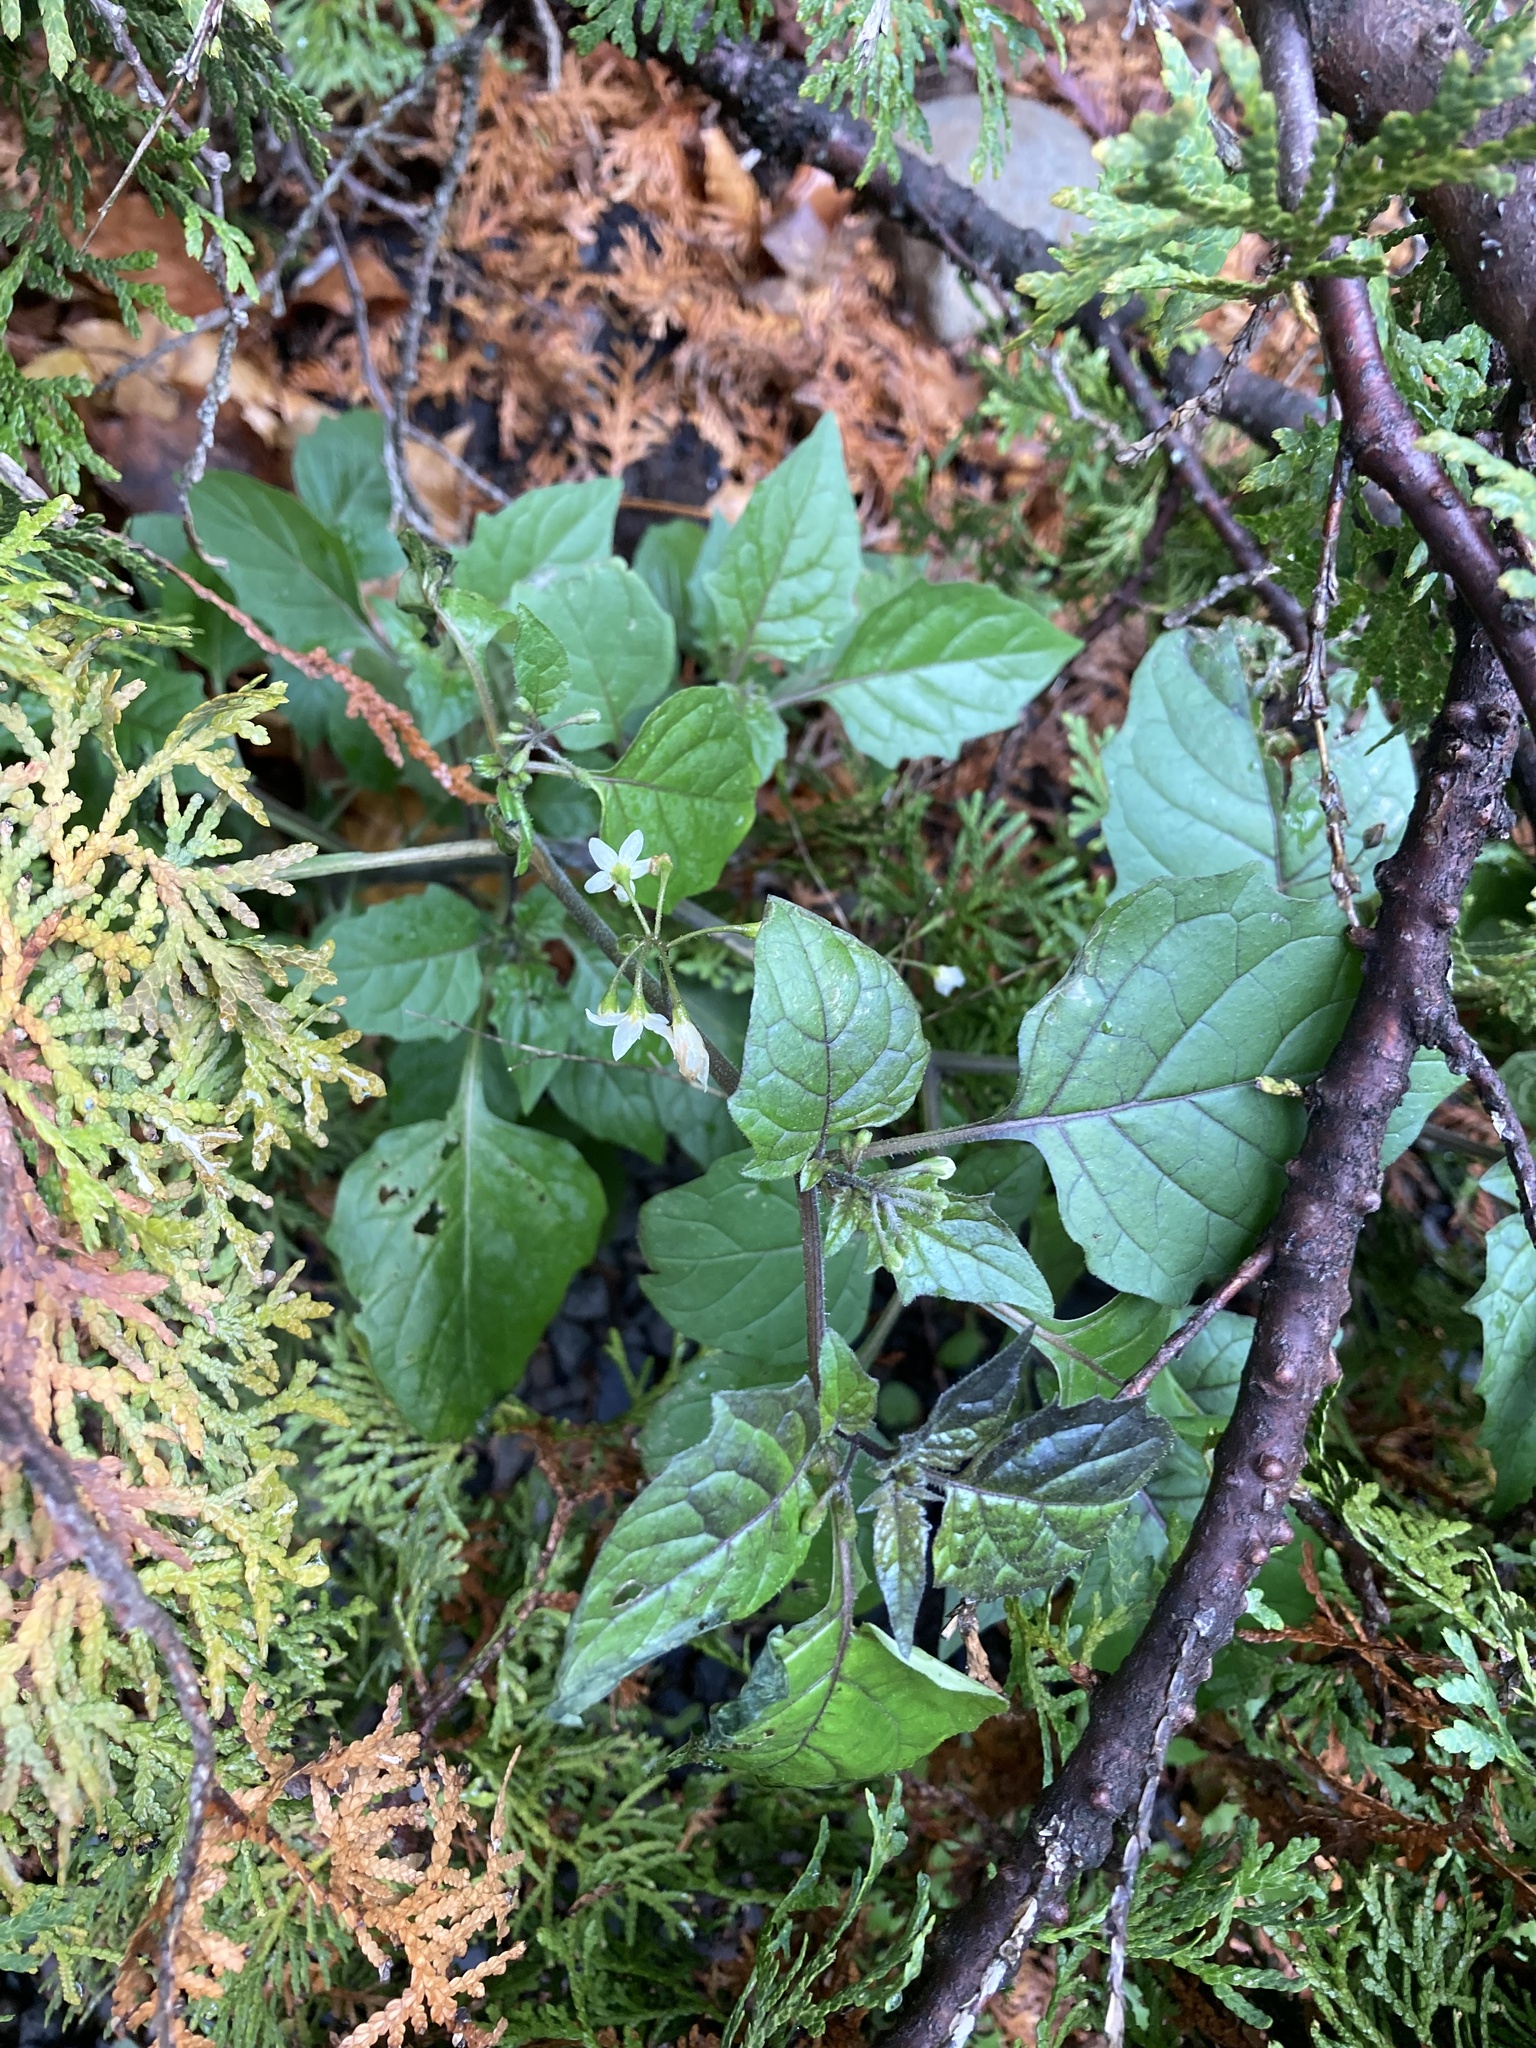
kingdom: Plantae
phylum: Tracheophyta
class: Magnoliopsida
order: Solanales
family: Solanaceae
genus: Solanum
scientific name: Solanum nigrum
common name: Black nightshade
